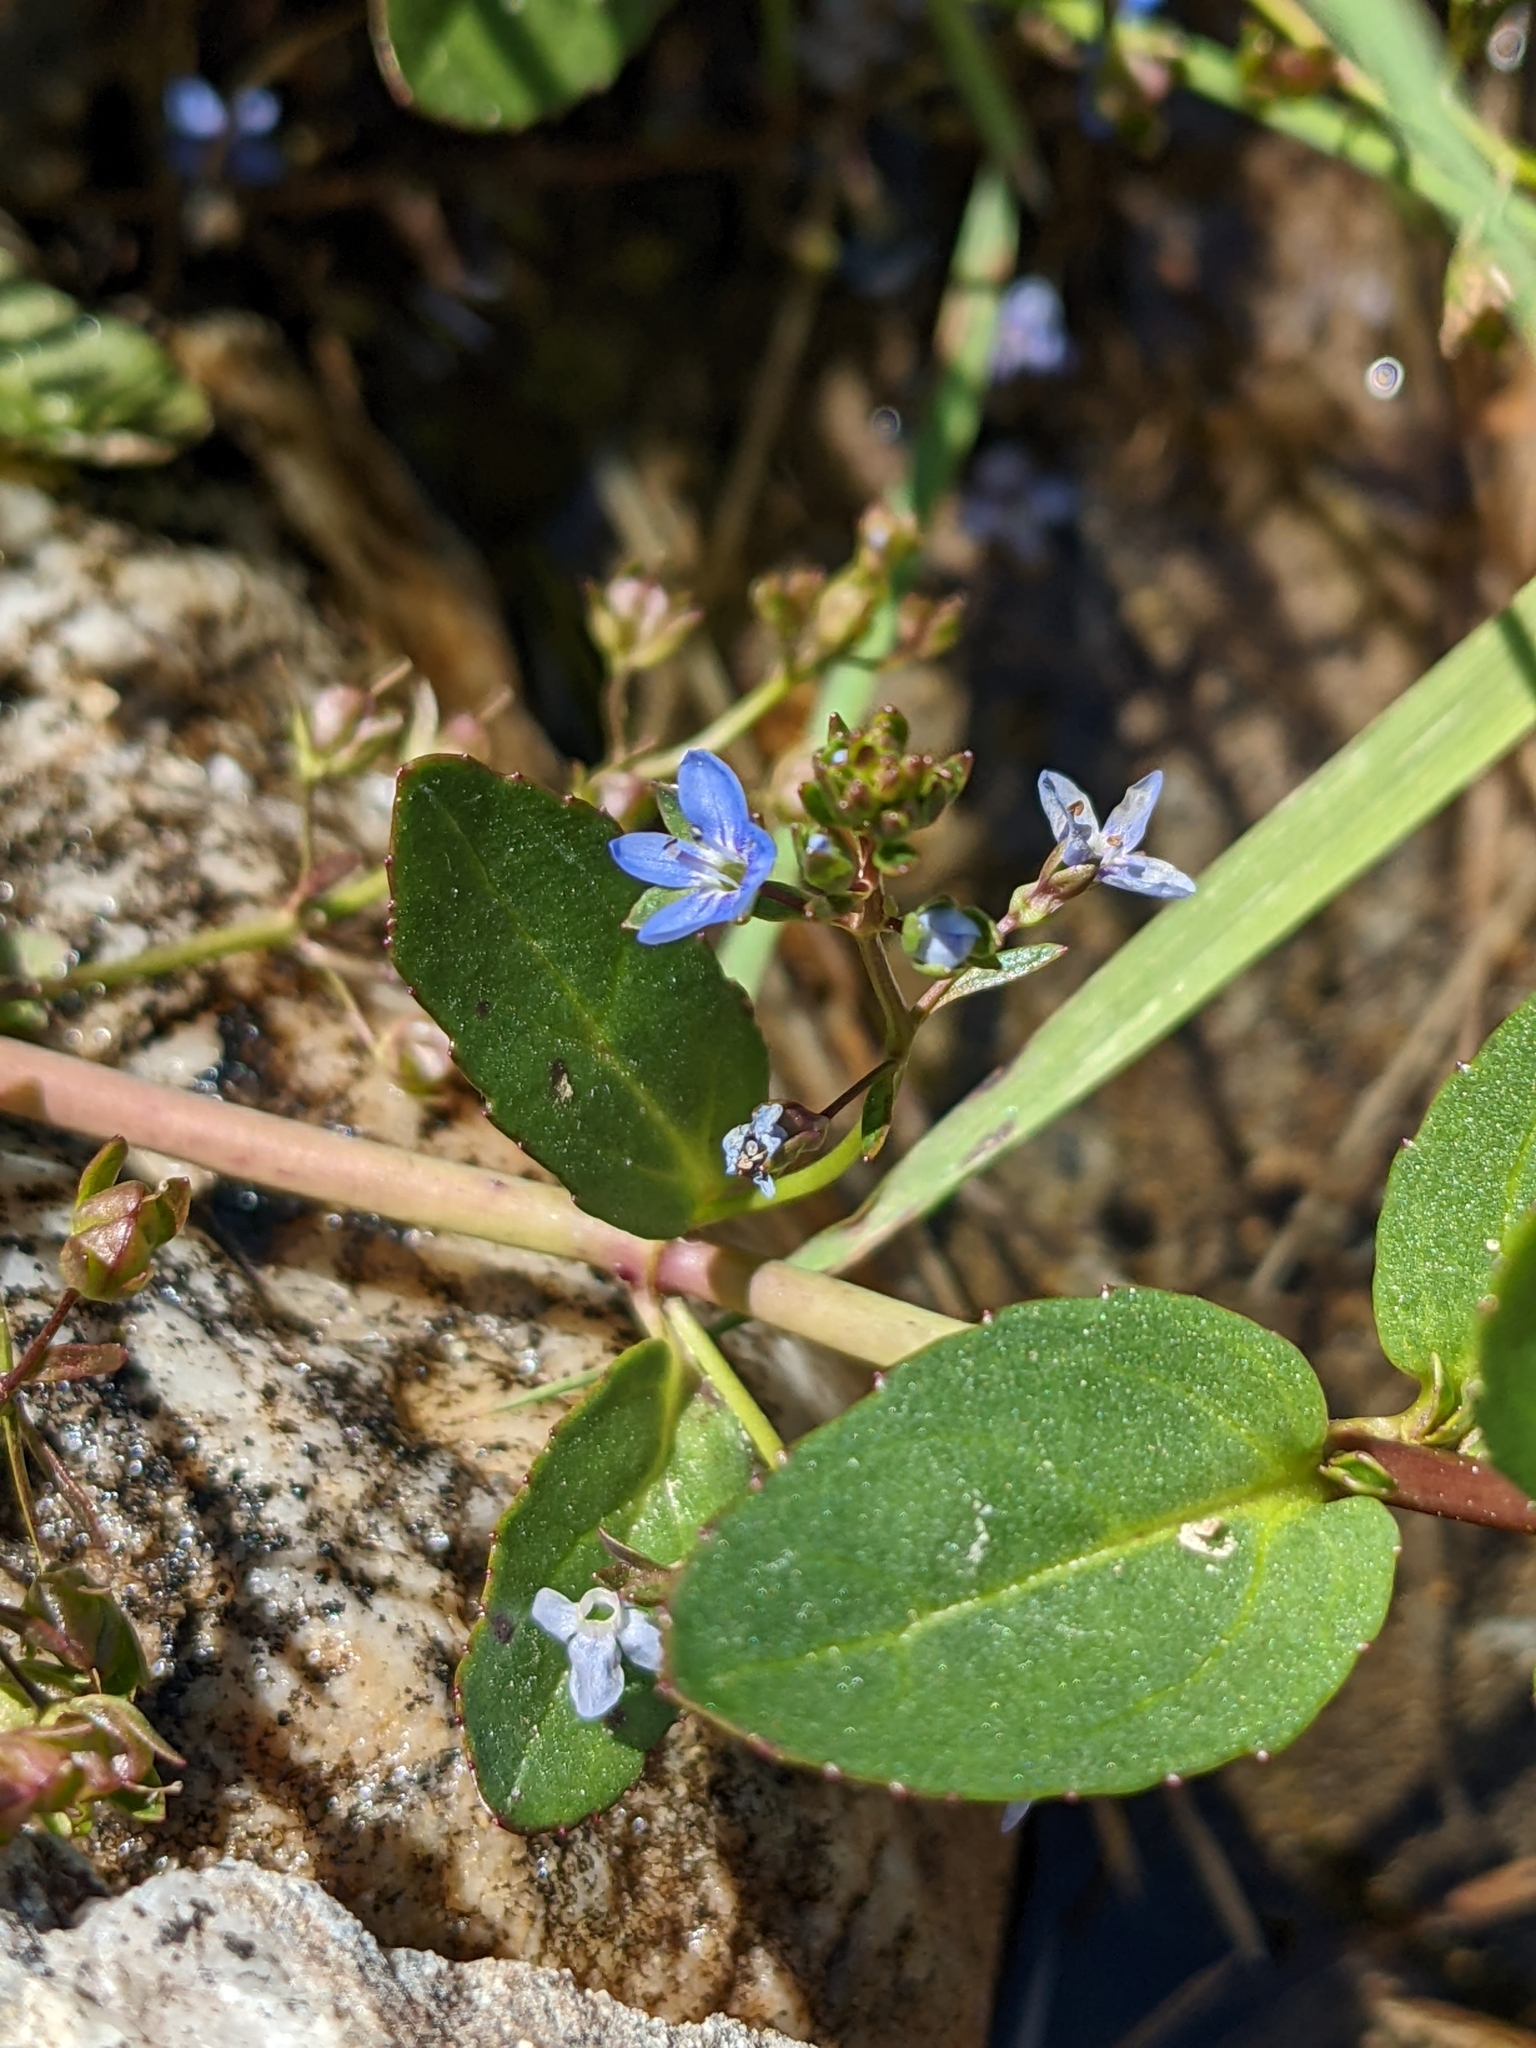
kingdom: Plantae
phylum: Tracheophyta
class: Magnoliopsida
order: Lamiales
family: Plantaginaceae
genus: Veronica
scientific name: Veronica beccabunga
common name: Brooklime
